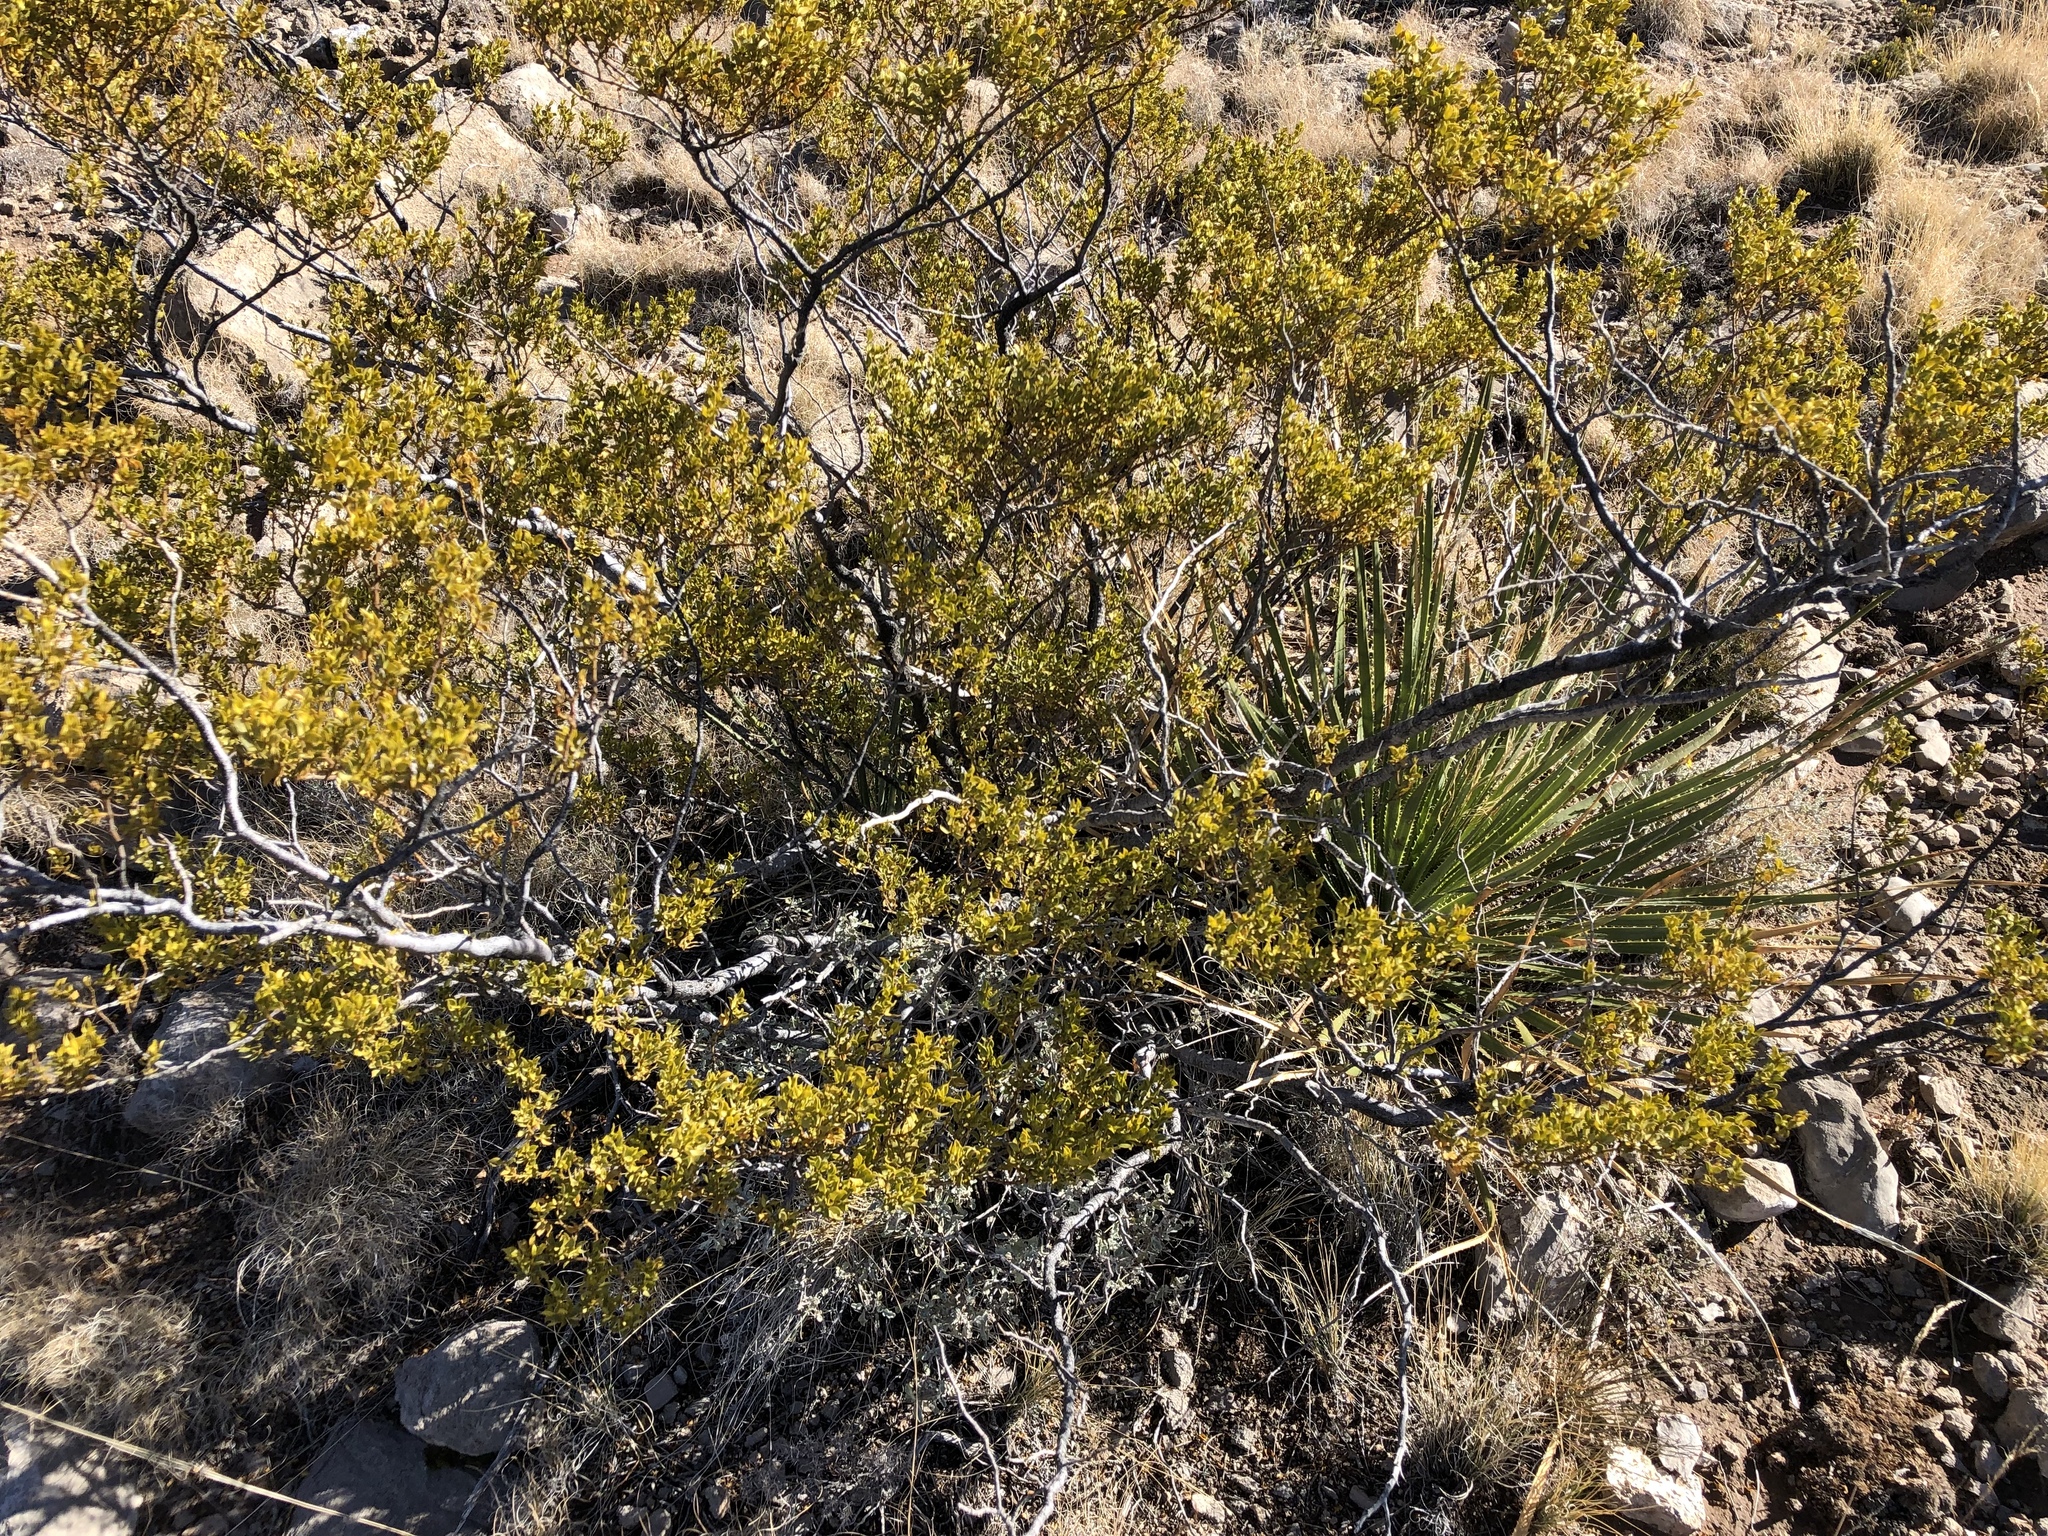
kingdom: Plantae
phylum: Tracheophyta
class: Magnoliopsida
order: Zygophyllales
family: Zygophyllaceae
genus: Larrea
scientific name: Larrea tridentata
